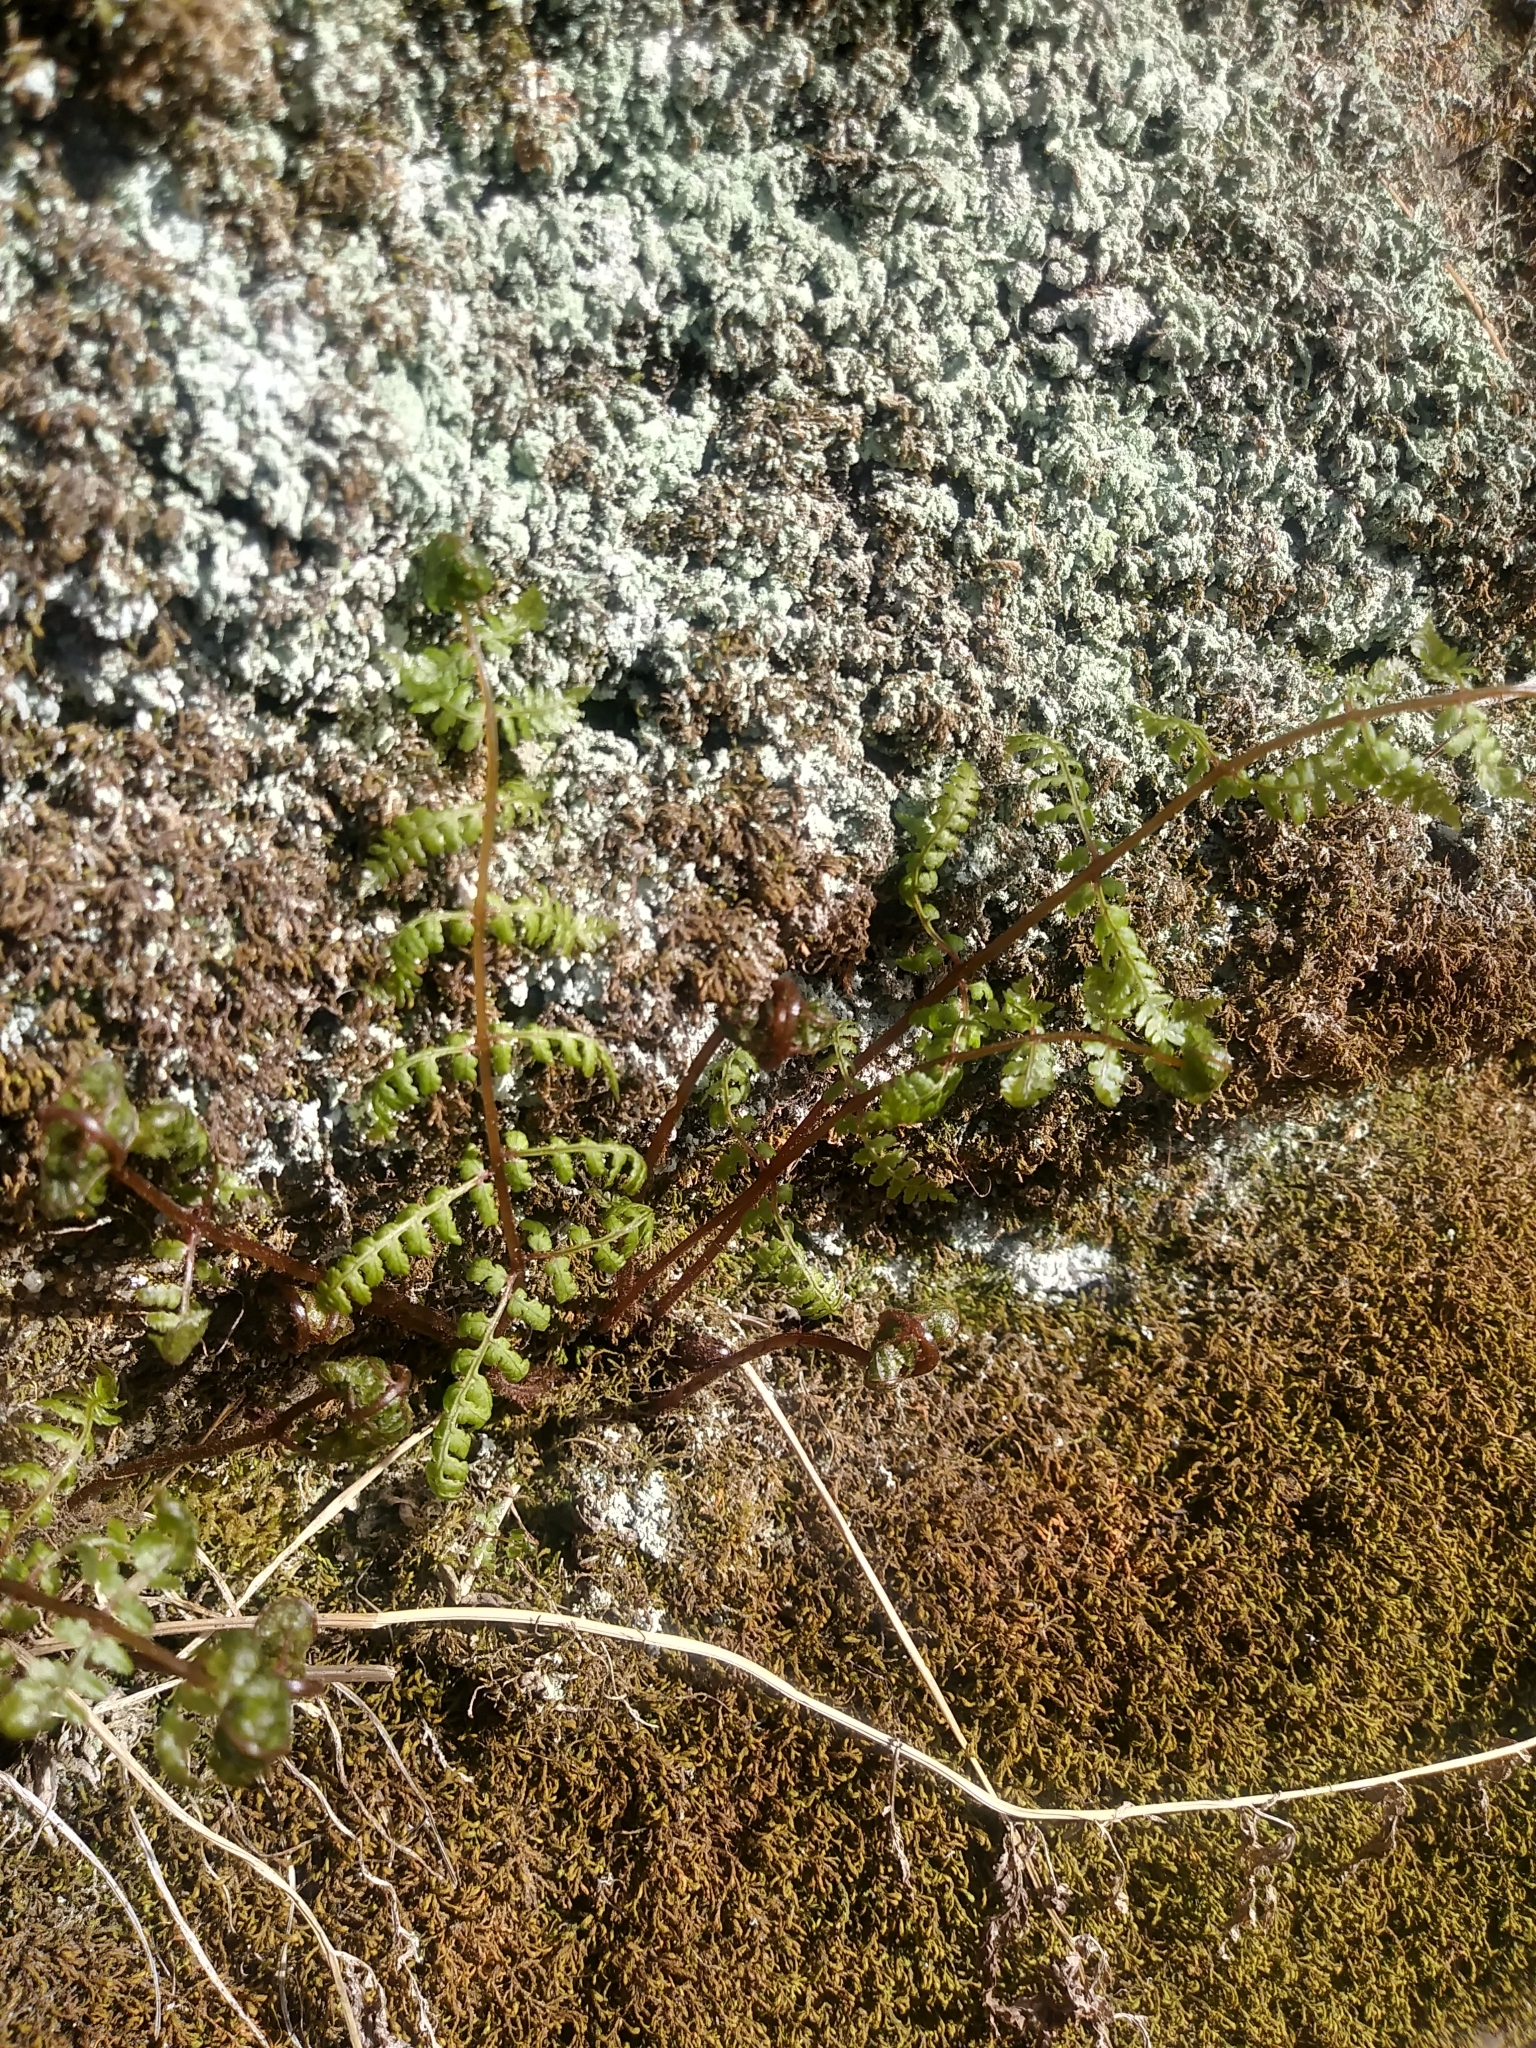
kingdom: Plantae
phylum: Tracheophyta
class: Polypodiopsida
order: Polypodiales
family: Cystopteridaceae
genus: Cystopteris
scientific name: Cystopteris bulbifera
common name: Bulblet bladder fern
